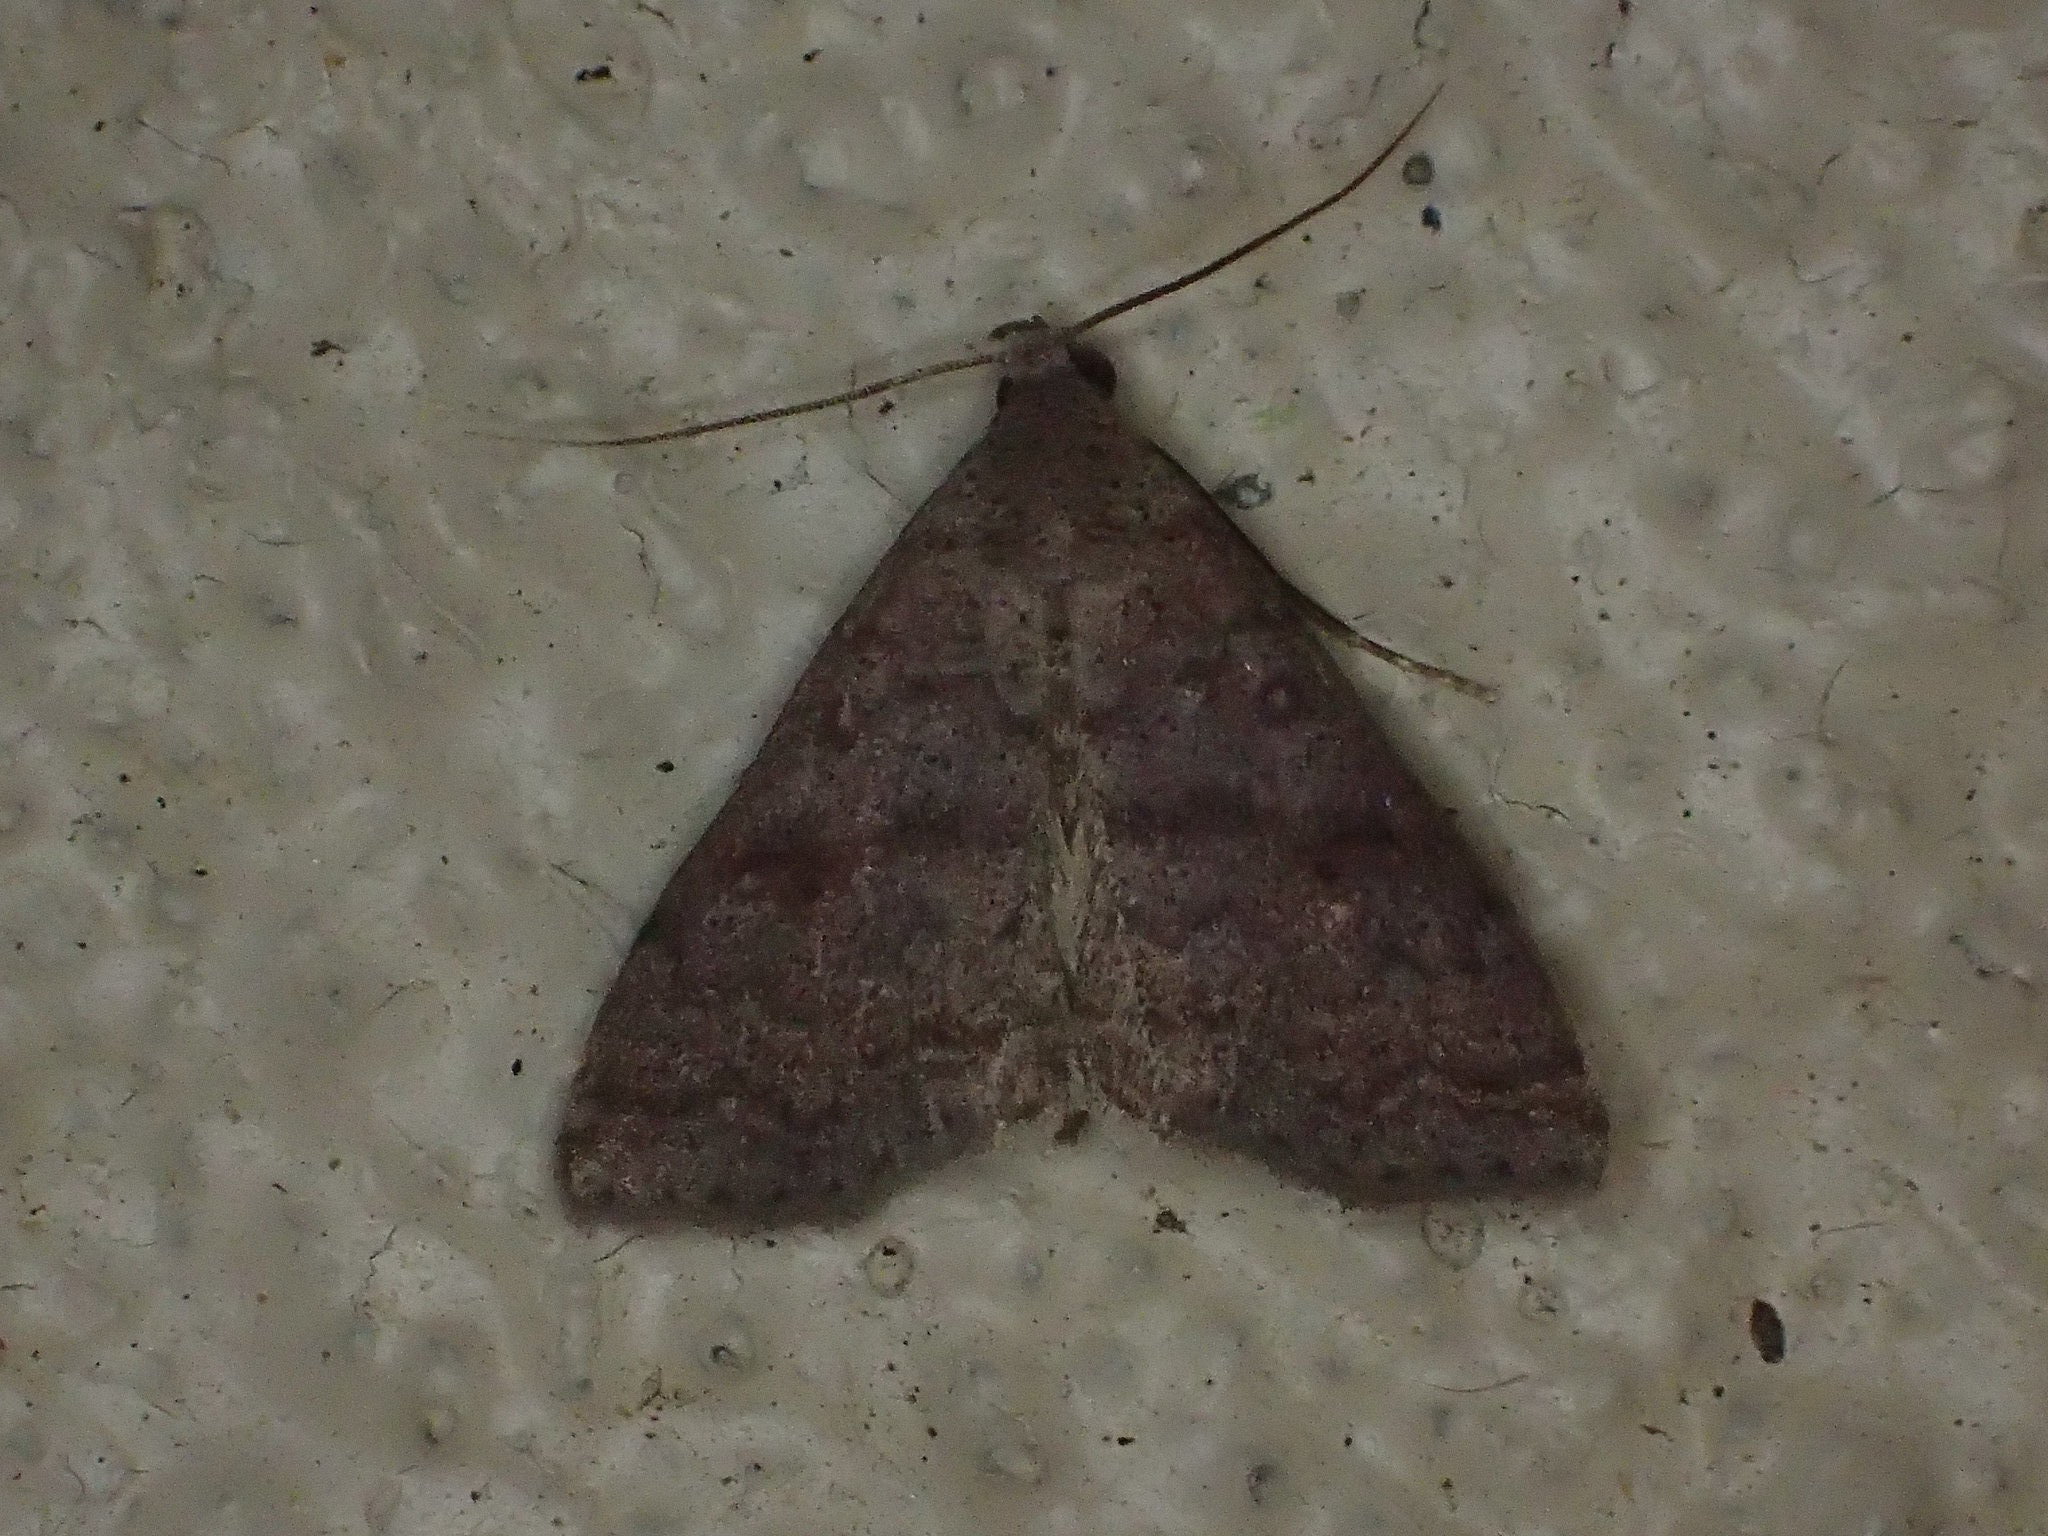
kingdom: Animalia
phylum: Arthropoda
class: Insecta
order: Lepidoptera
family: Erebidae
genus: Bleptina
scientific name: Bleptina sangamonia
